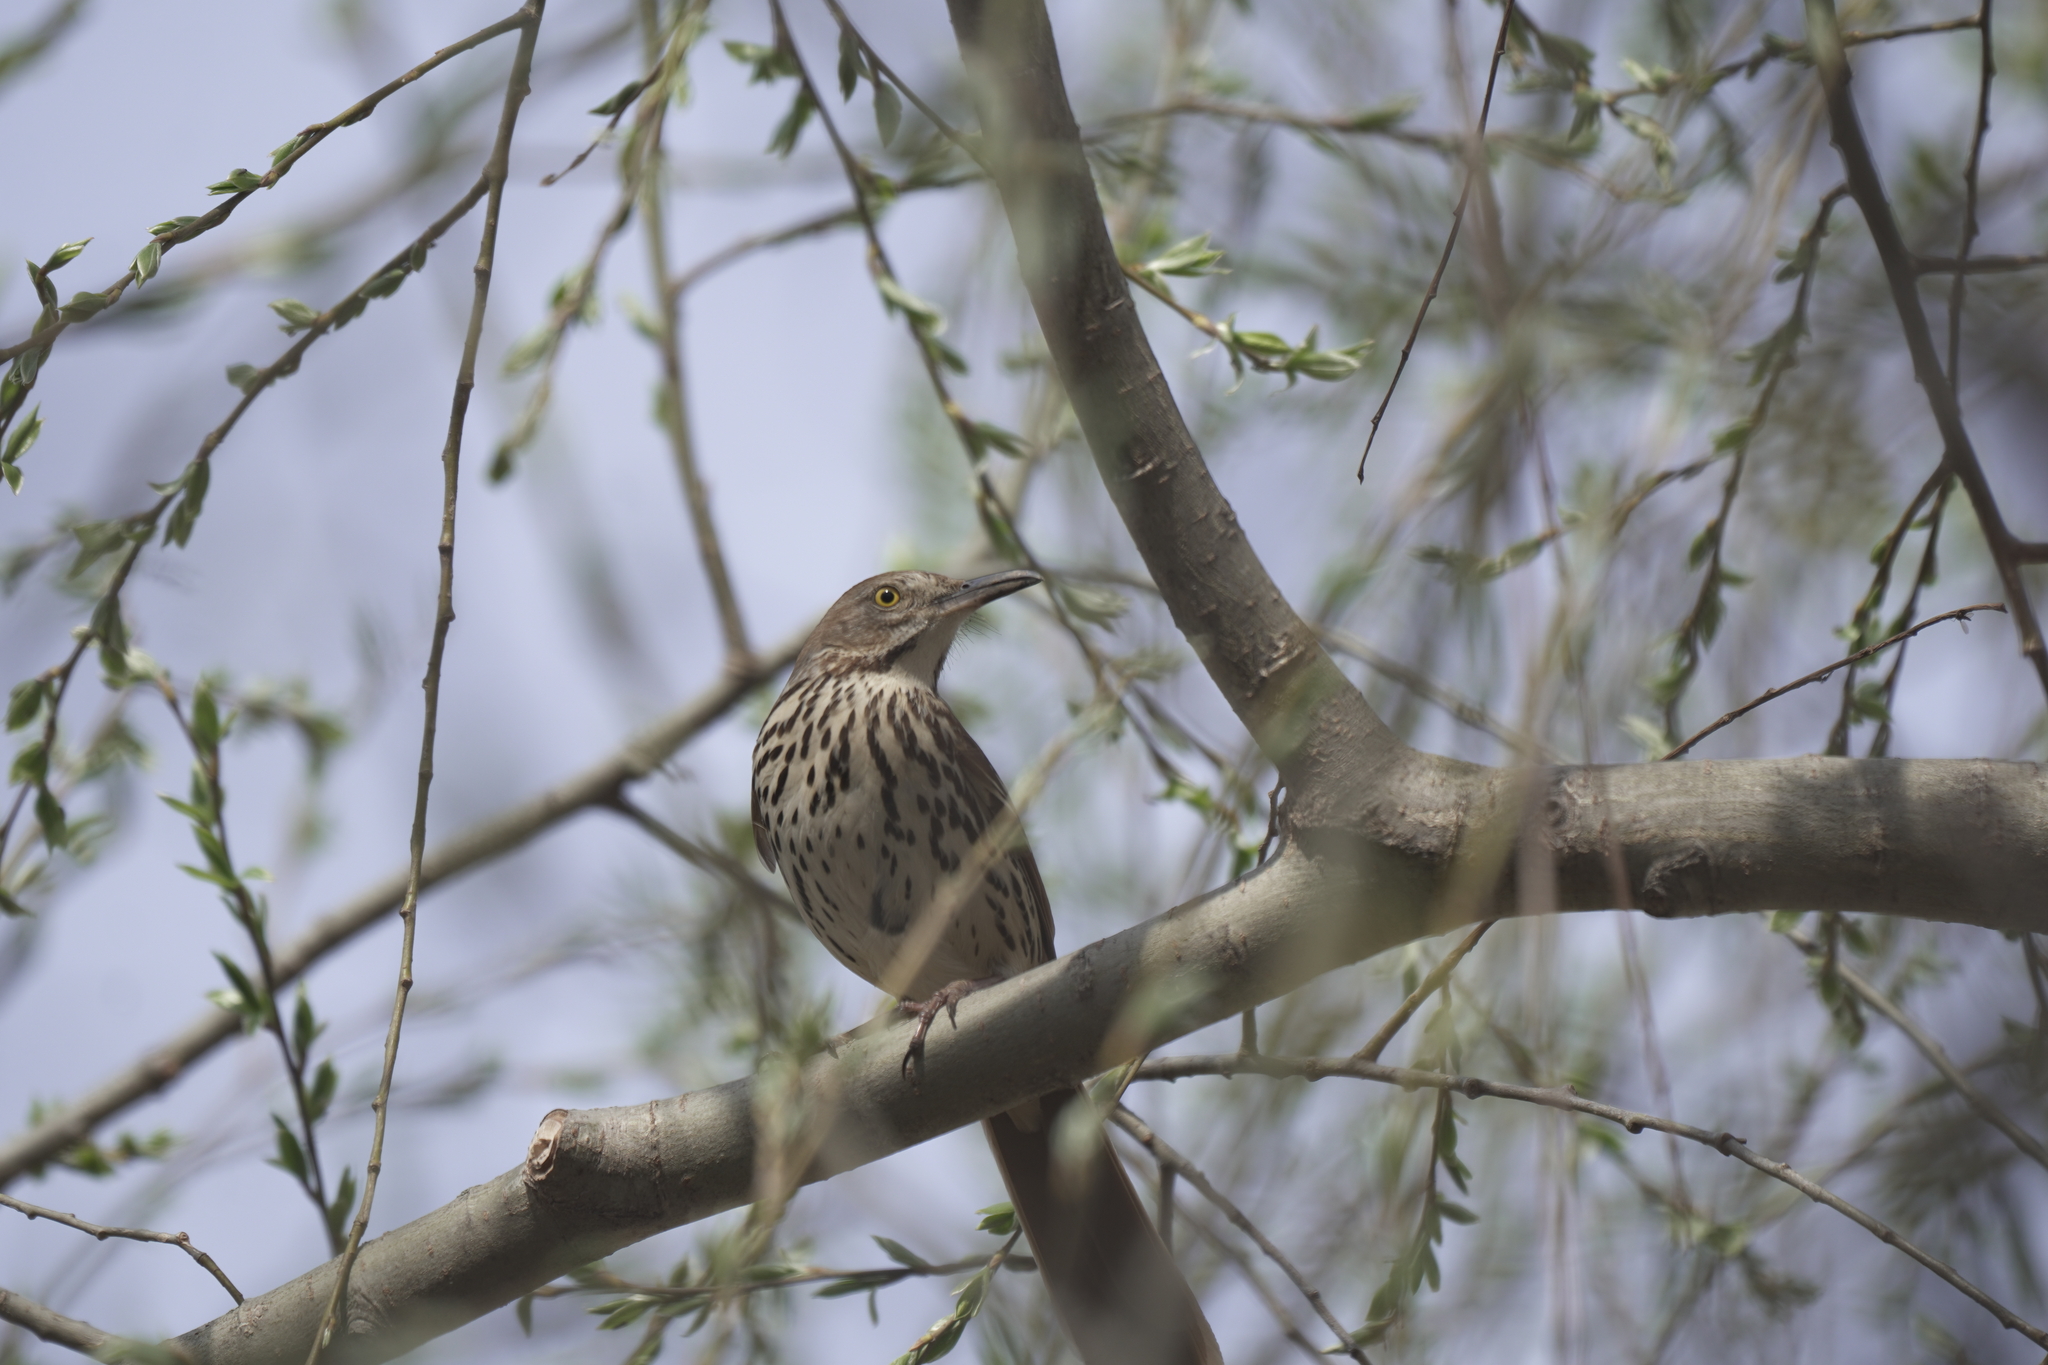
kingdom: Animalia
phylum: Chordata
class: Aves
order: Passeriformes
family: Mimidae
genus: Toxostoma
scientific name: Toxostoma rufum
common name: Brown thrasher
